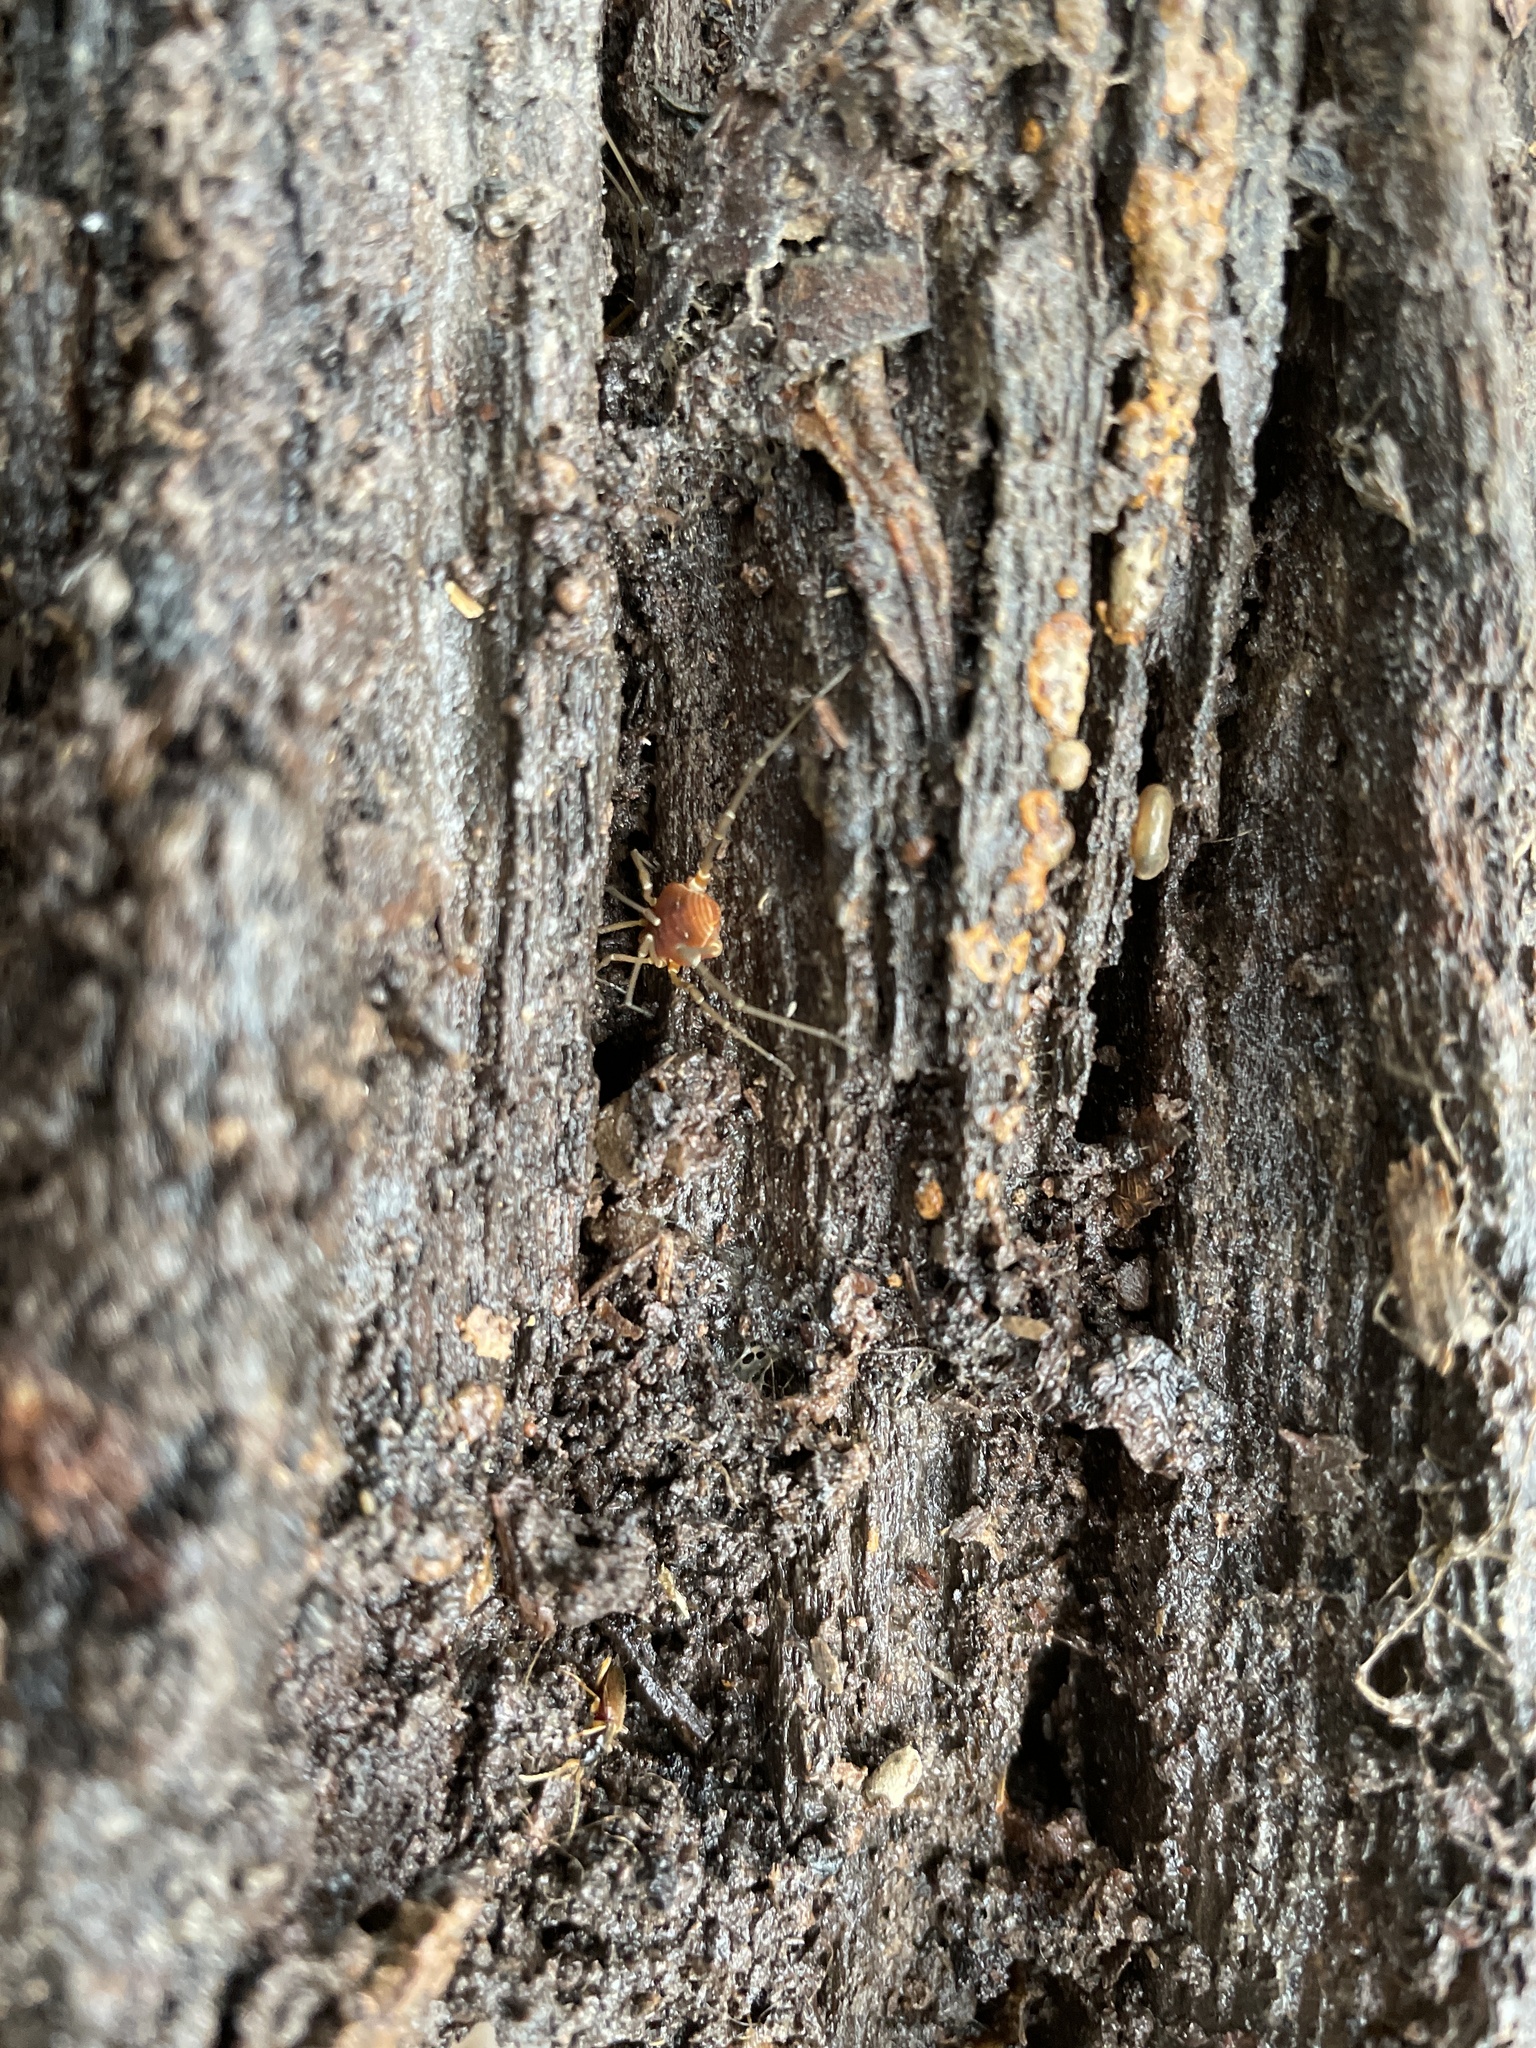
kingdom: Animalia
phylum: Arthropoda
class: Arachnida
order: Opiliones
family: Cosmetidae
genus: Libitioides
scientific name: Libitioides sayi
